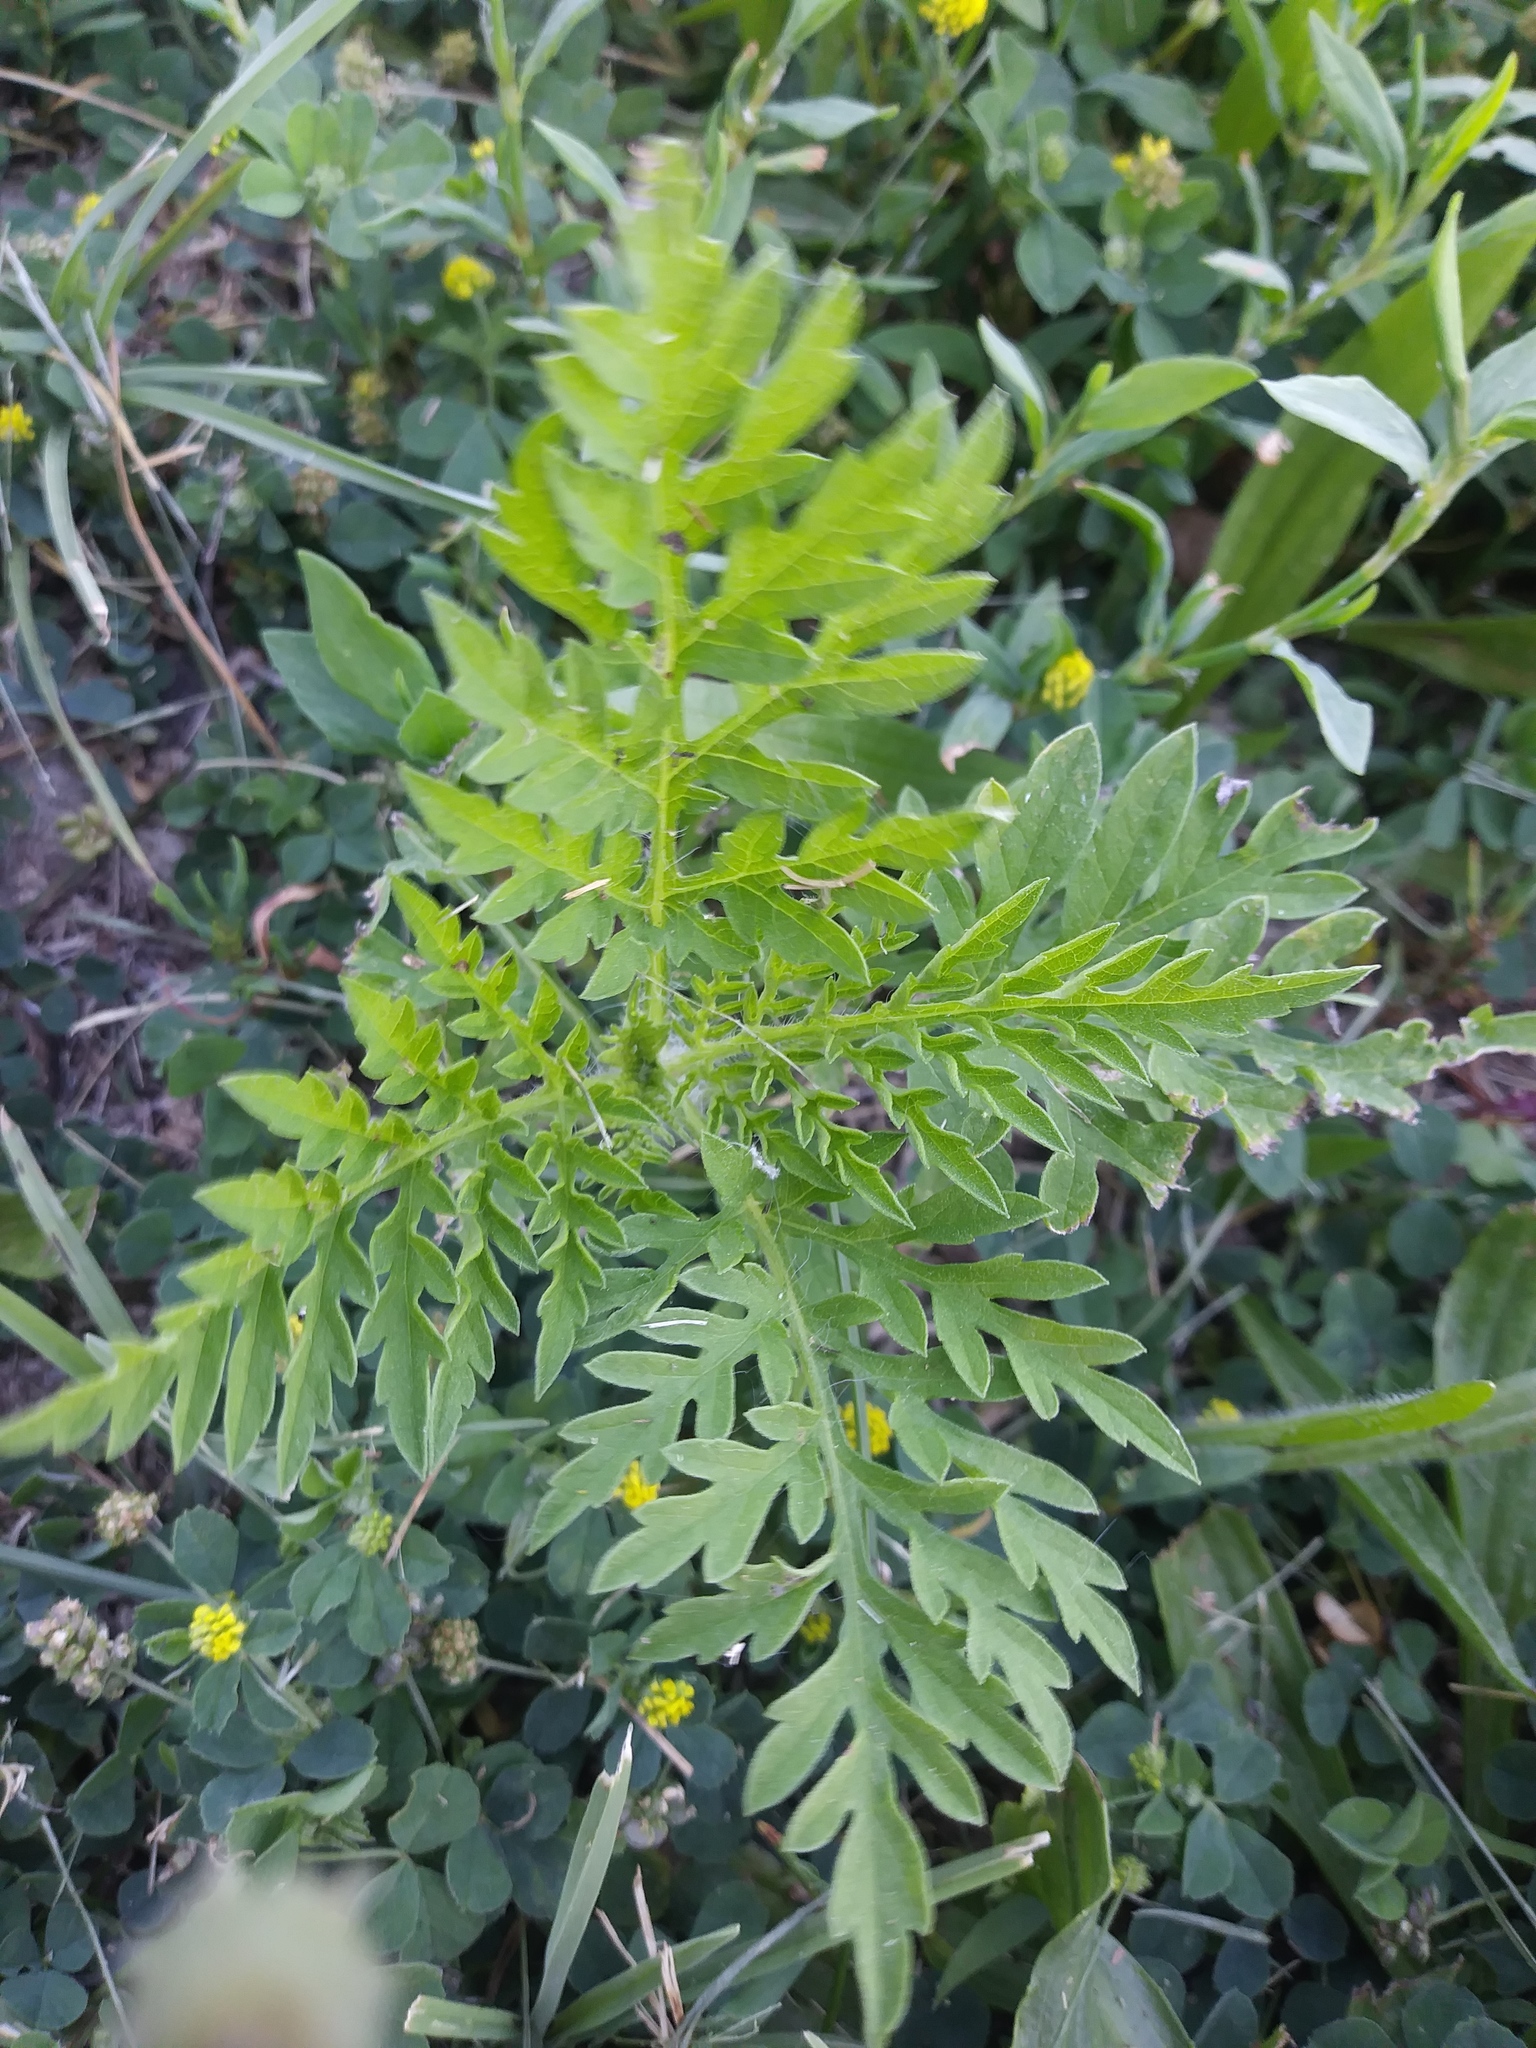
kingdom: Plantae
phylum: Tracheophyta
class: Magnoliopsida
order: Asterales
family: Asteraceae
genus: Ambrosia
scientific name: Ambrosia artemisiifolia
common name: Annual ragweed
